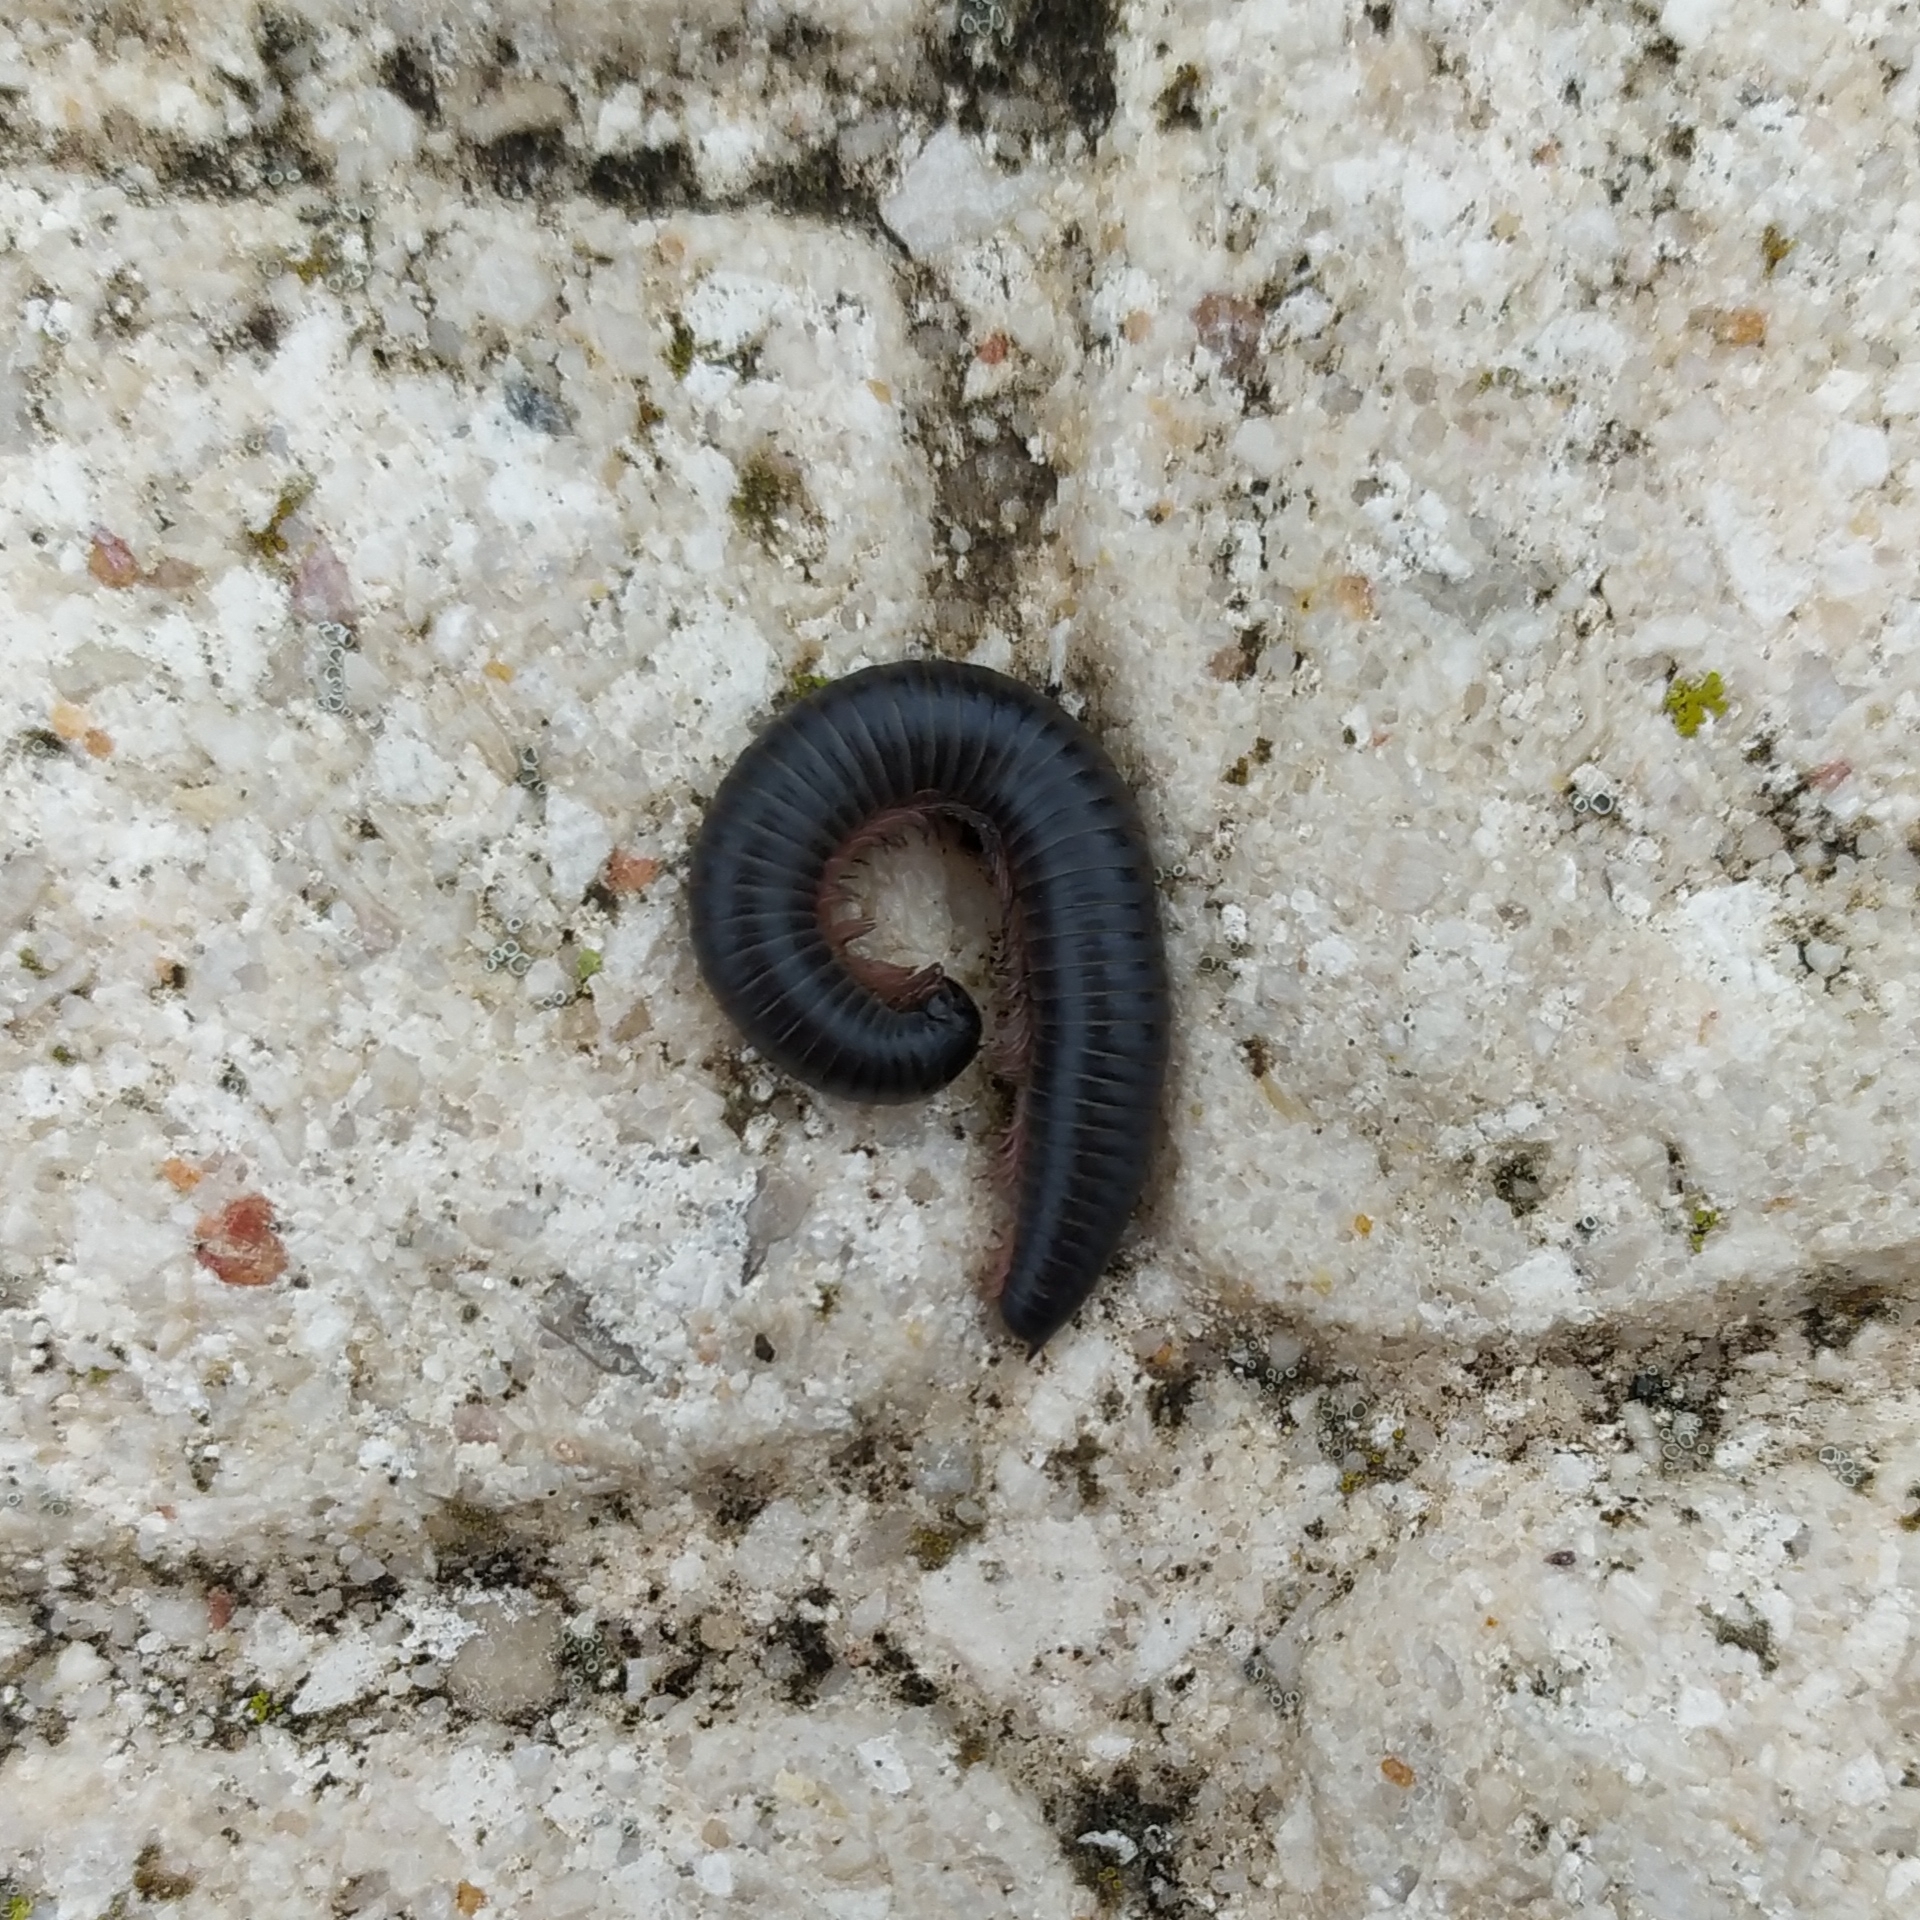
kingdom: Animalia
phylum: Arthropoda
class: Diplopoda
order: Julida
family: Julidae
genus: Ommatoiulus
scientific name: Ommatoiulus moreleti
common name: Portuguese millipede
